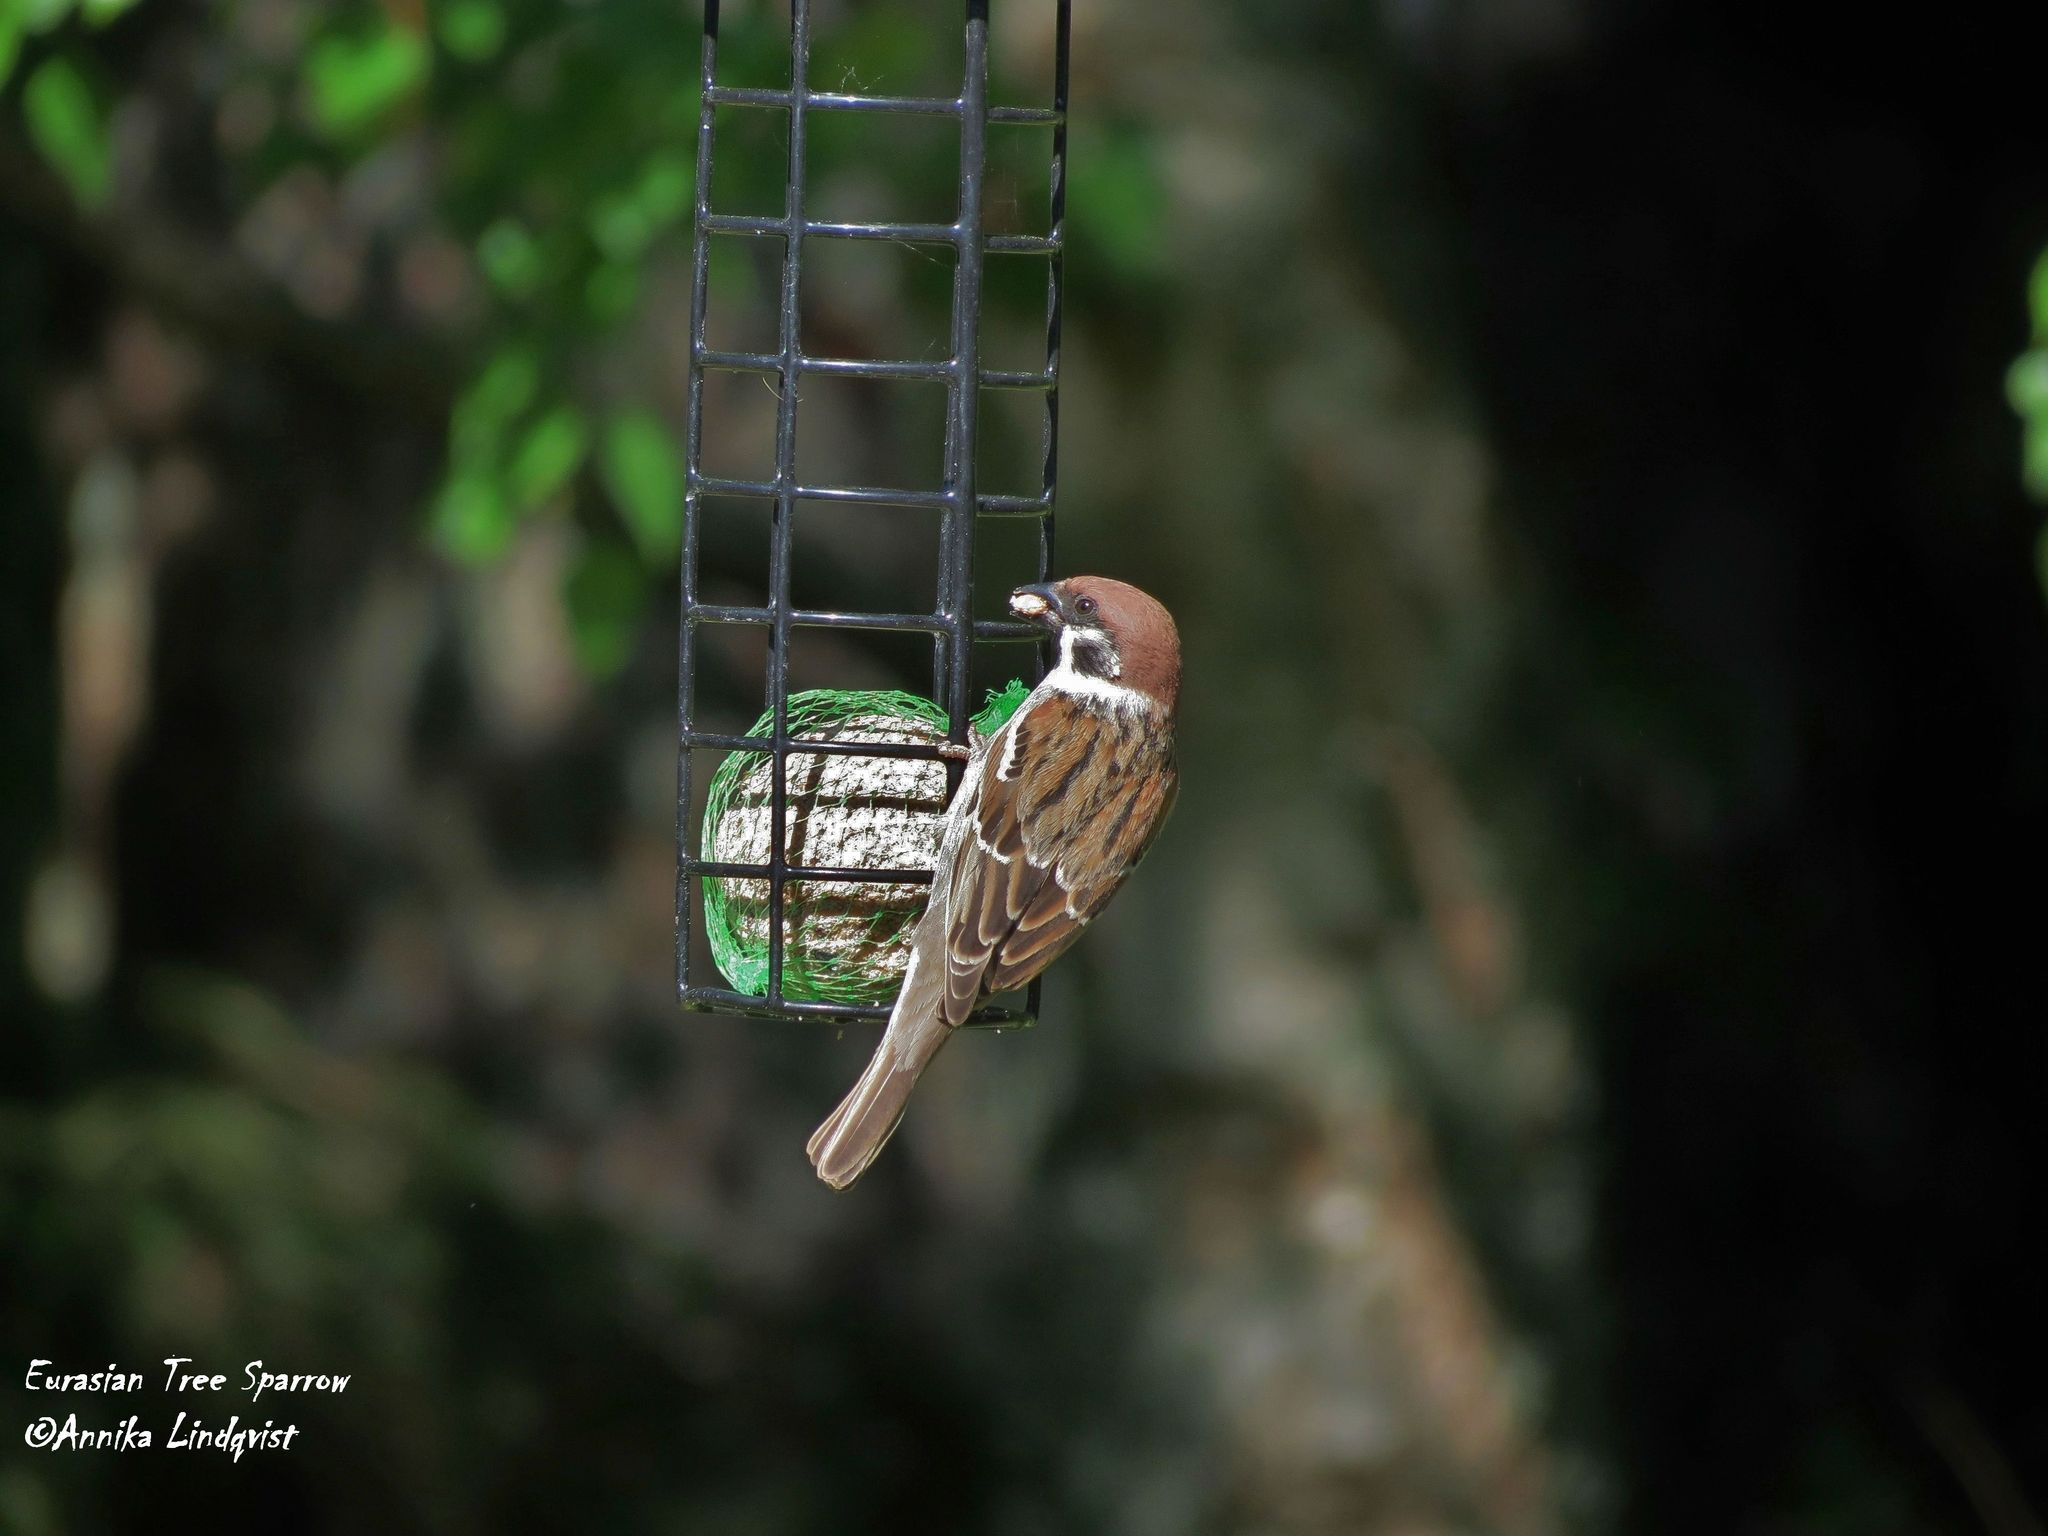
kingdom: Animalia
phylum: Chordata
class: Aves
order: Passeriformes
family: Passeridae
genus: Passer
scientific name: Passer montanus
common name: Eurasian tree sparrow
